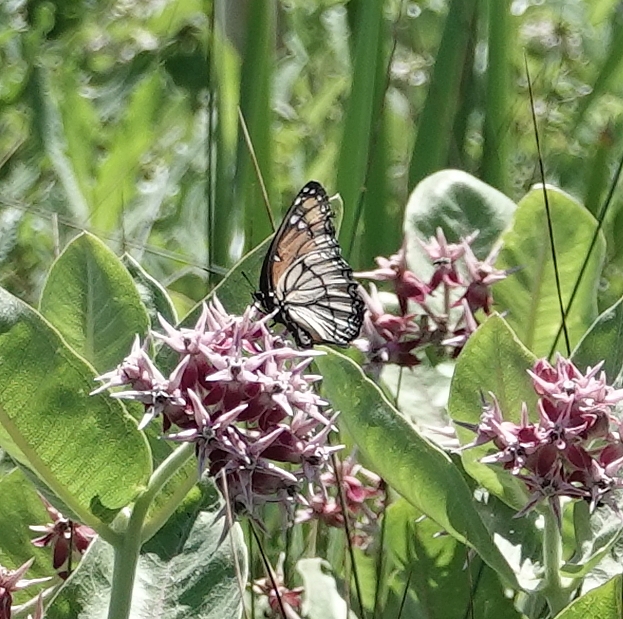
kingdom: Animalia
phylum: Arthropoda
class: Insecta
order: Lepidoptera
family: Nymphalidae
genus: Limenitis
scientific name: Limenitis archippus
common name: Viceroy
